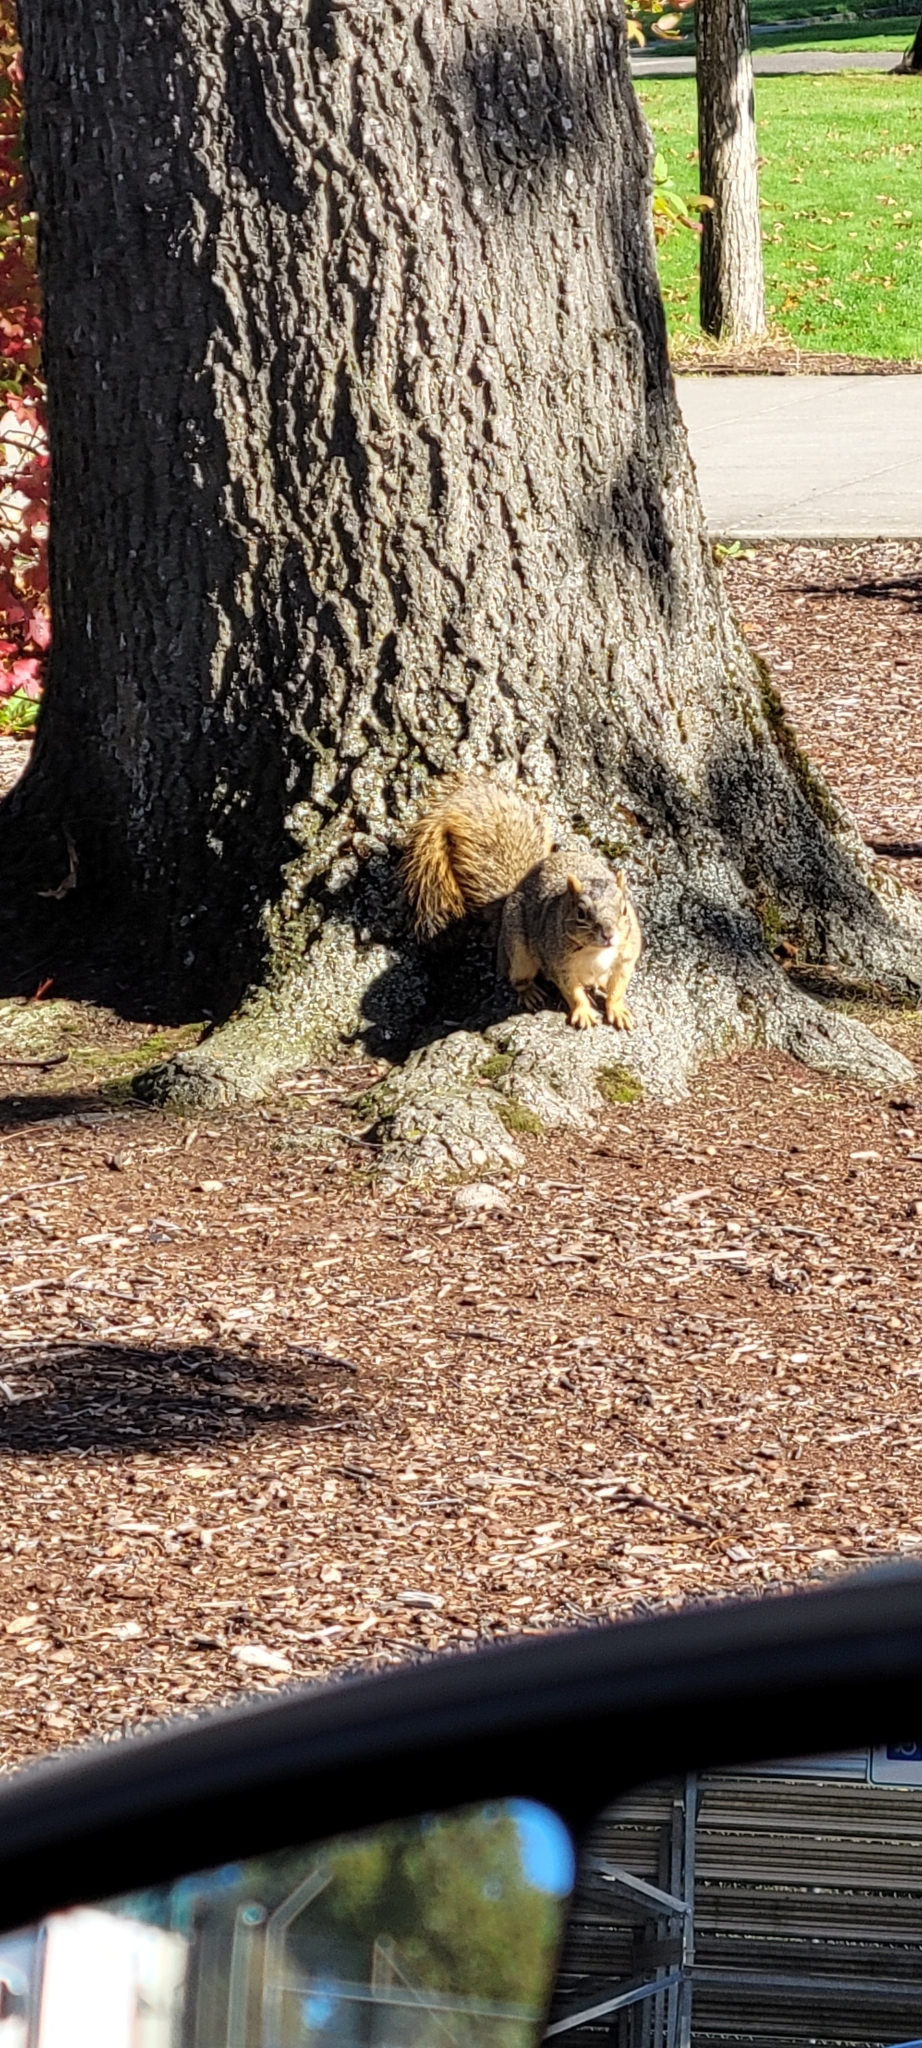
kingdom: Animalia
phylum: Chordata
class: Mammalia
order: Rodentia
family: Sciuridae
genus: Sciurus
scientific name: Sciurus niger
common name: Fox squirrel
